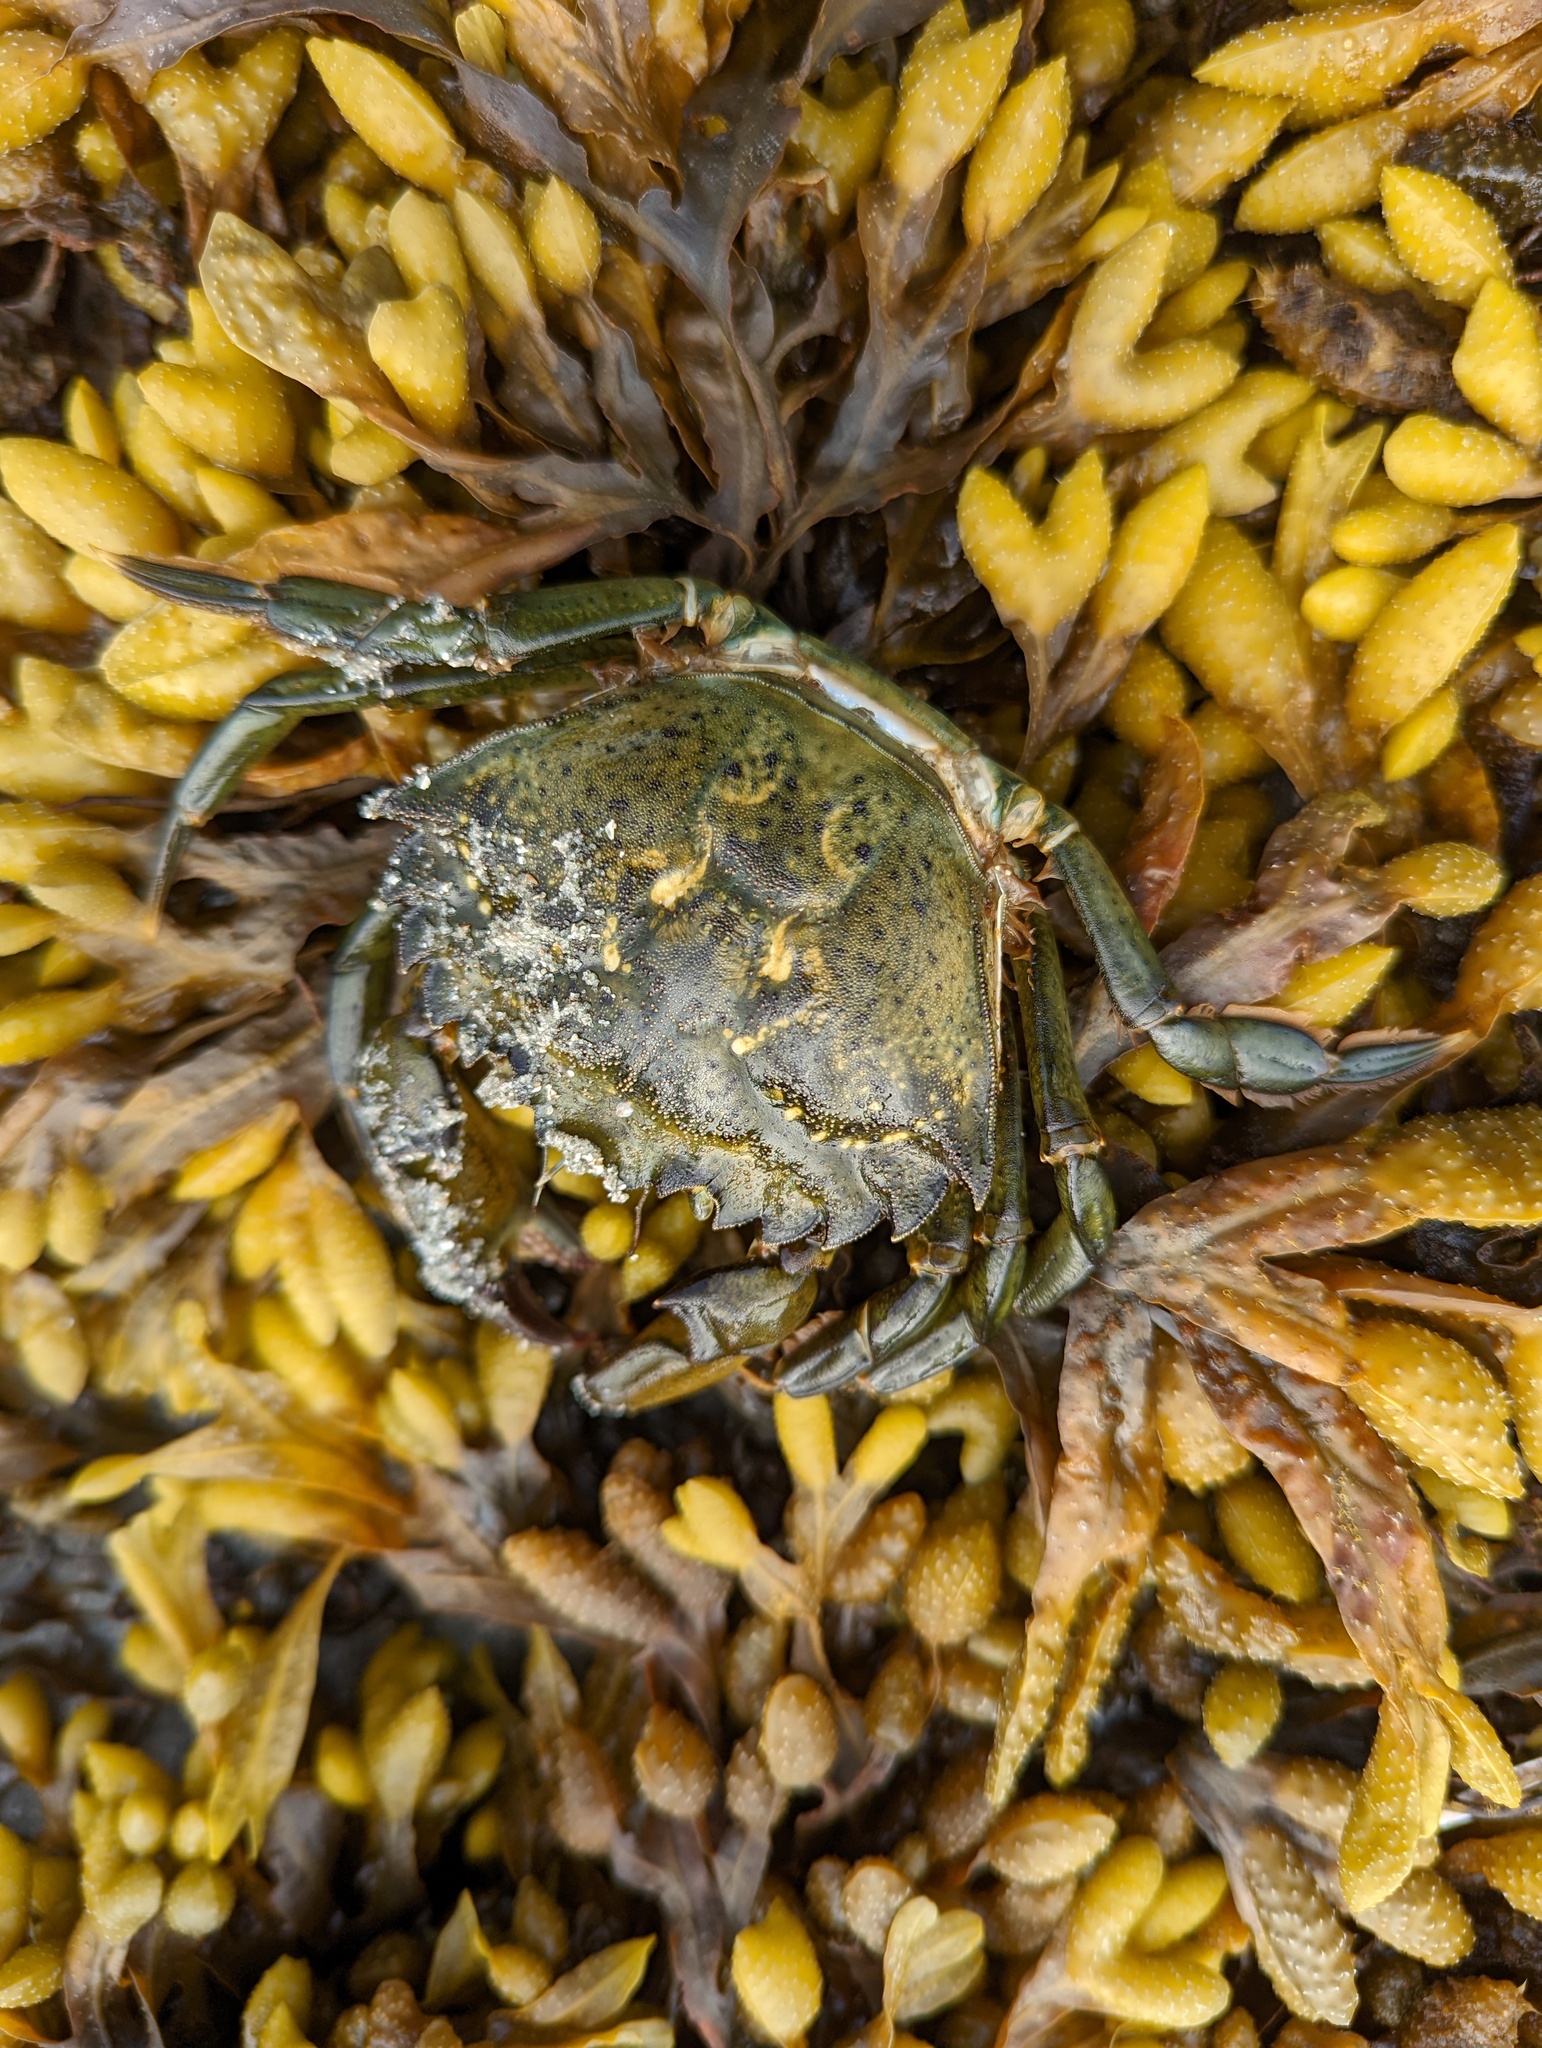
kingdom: Animalia
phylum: Arthropoda
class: Malacostraca
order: Decapoda
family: Carcinidae
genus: Carcinus
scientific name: Carcinus maenas
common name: European green crab
